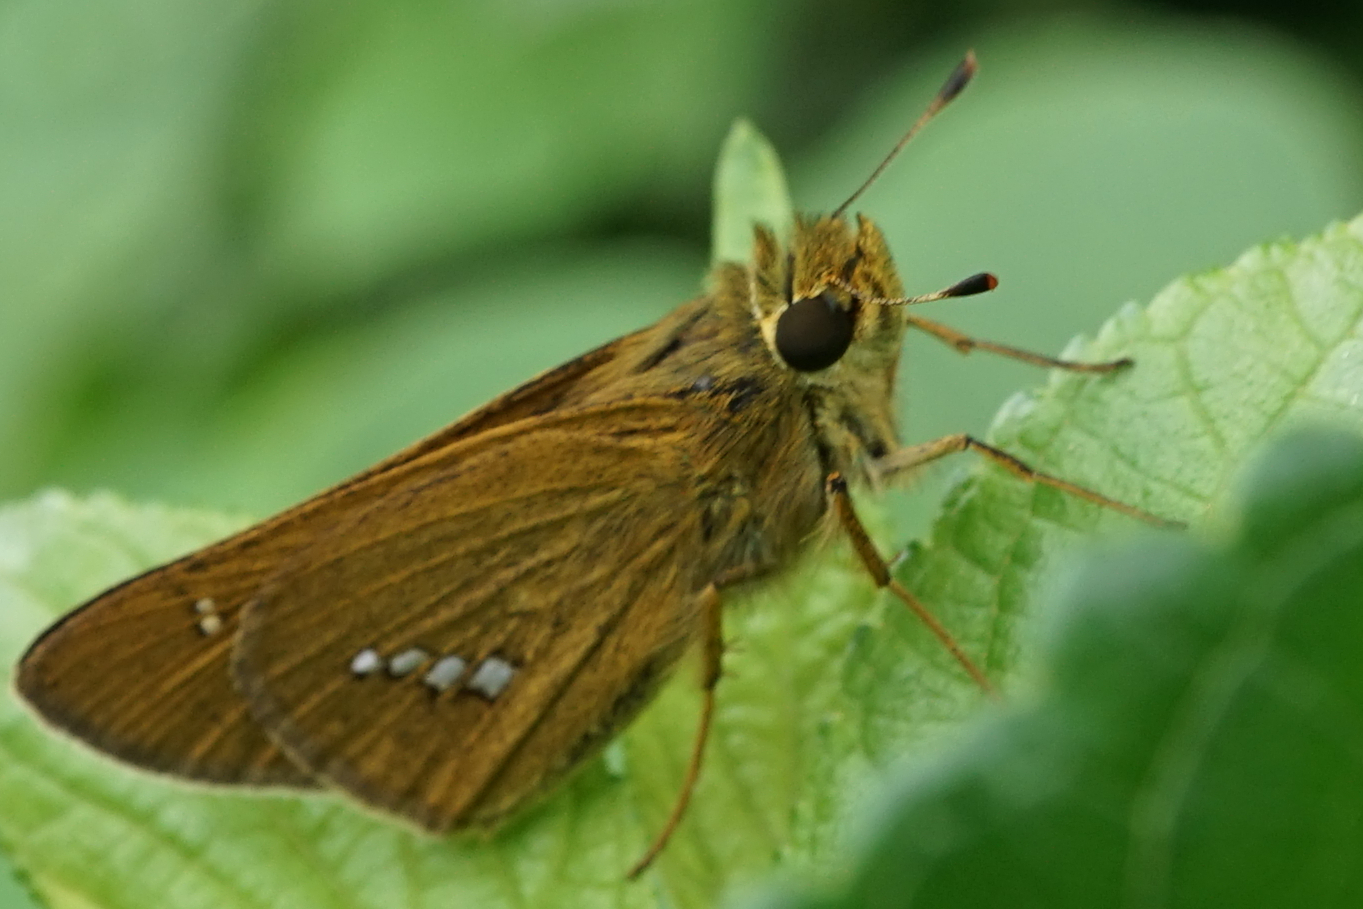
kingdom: Animalia
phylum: Arthropoda
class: Insecta
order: Lepidoptera
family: Hesperiidae
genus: Parnara
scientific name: Parnara guttatus
